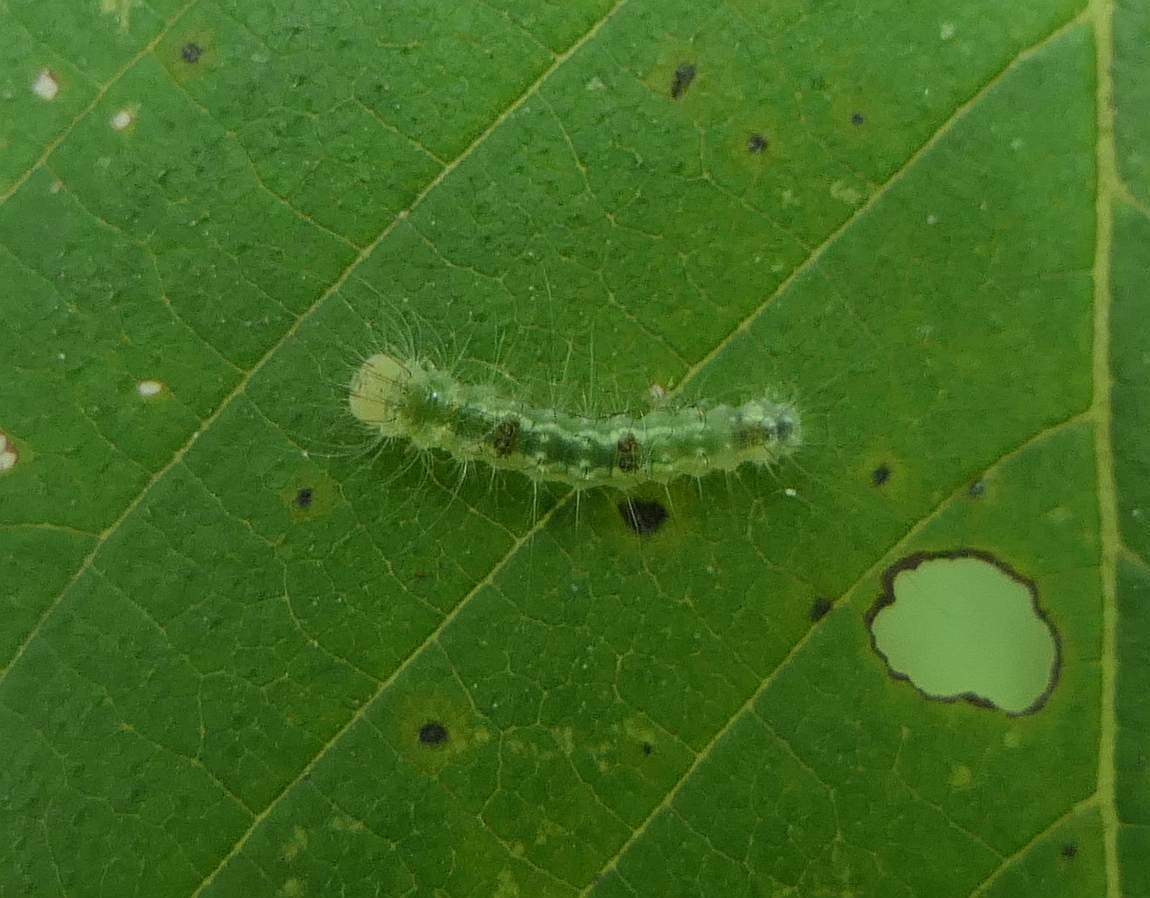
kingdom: Animalia
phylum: Arthropoda
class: Insecta
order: Lepidoptera
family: Noctuidae
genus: Acronicta
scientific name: Acronicta morula
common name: Ochre dagger
